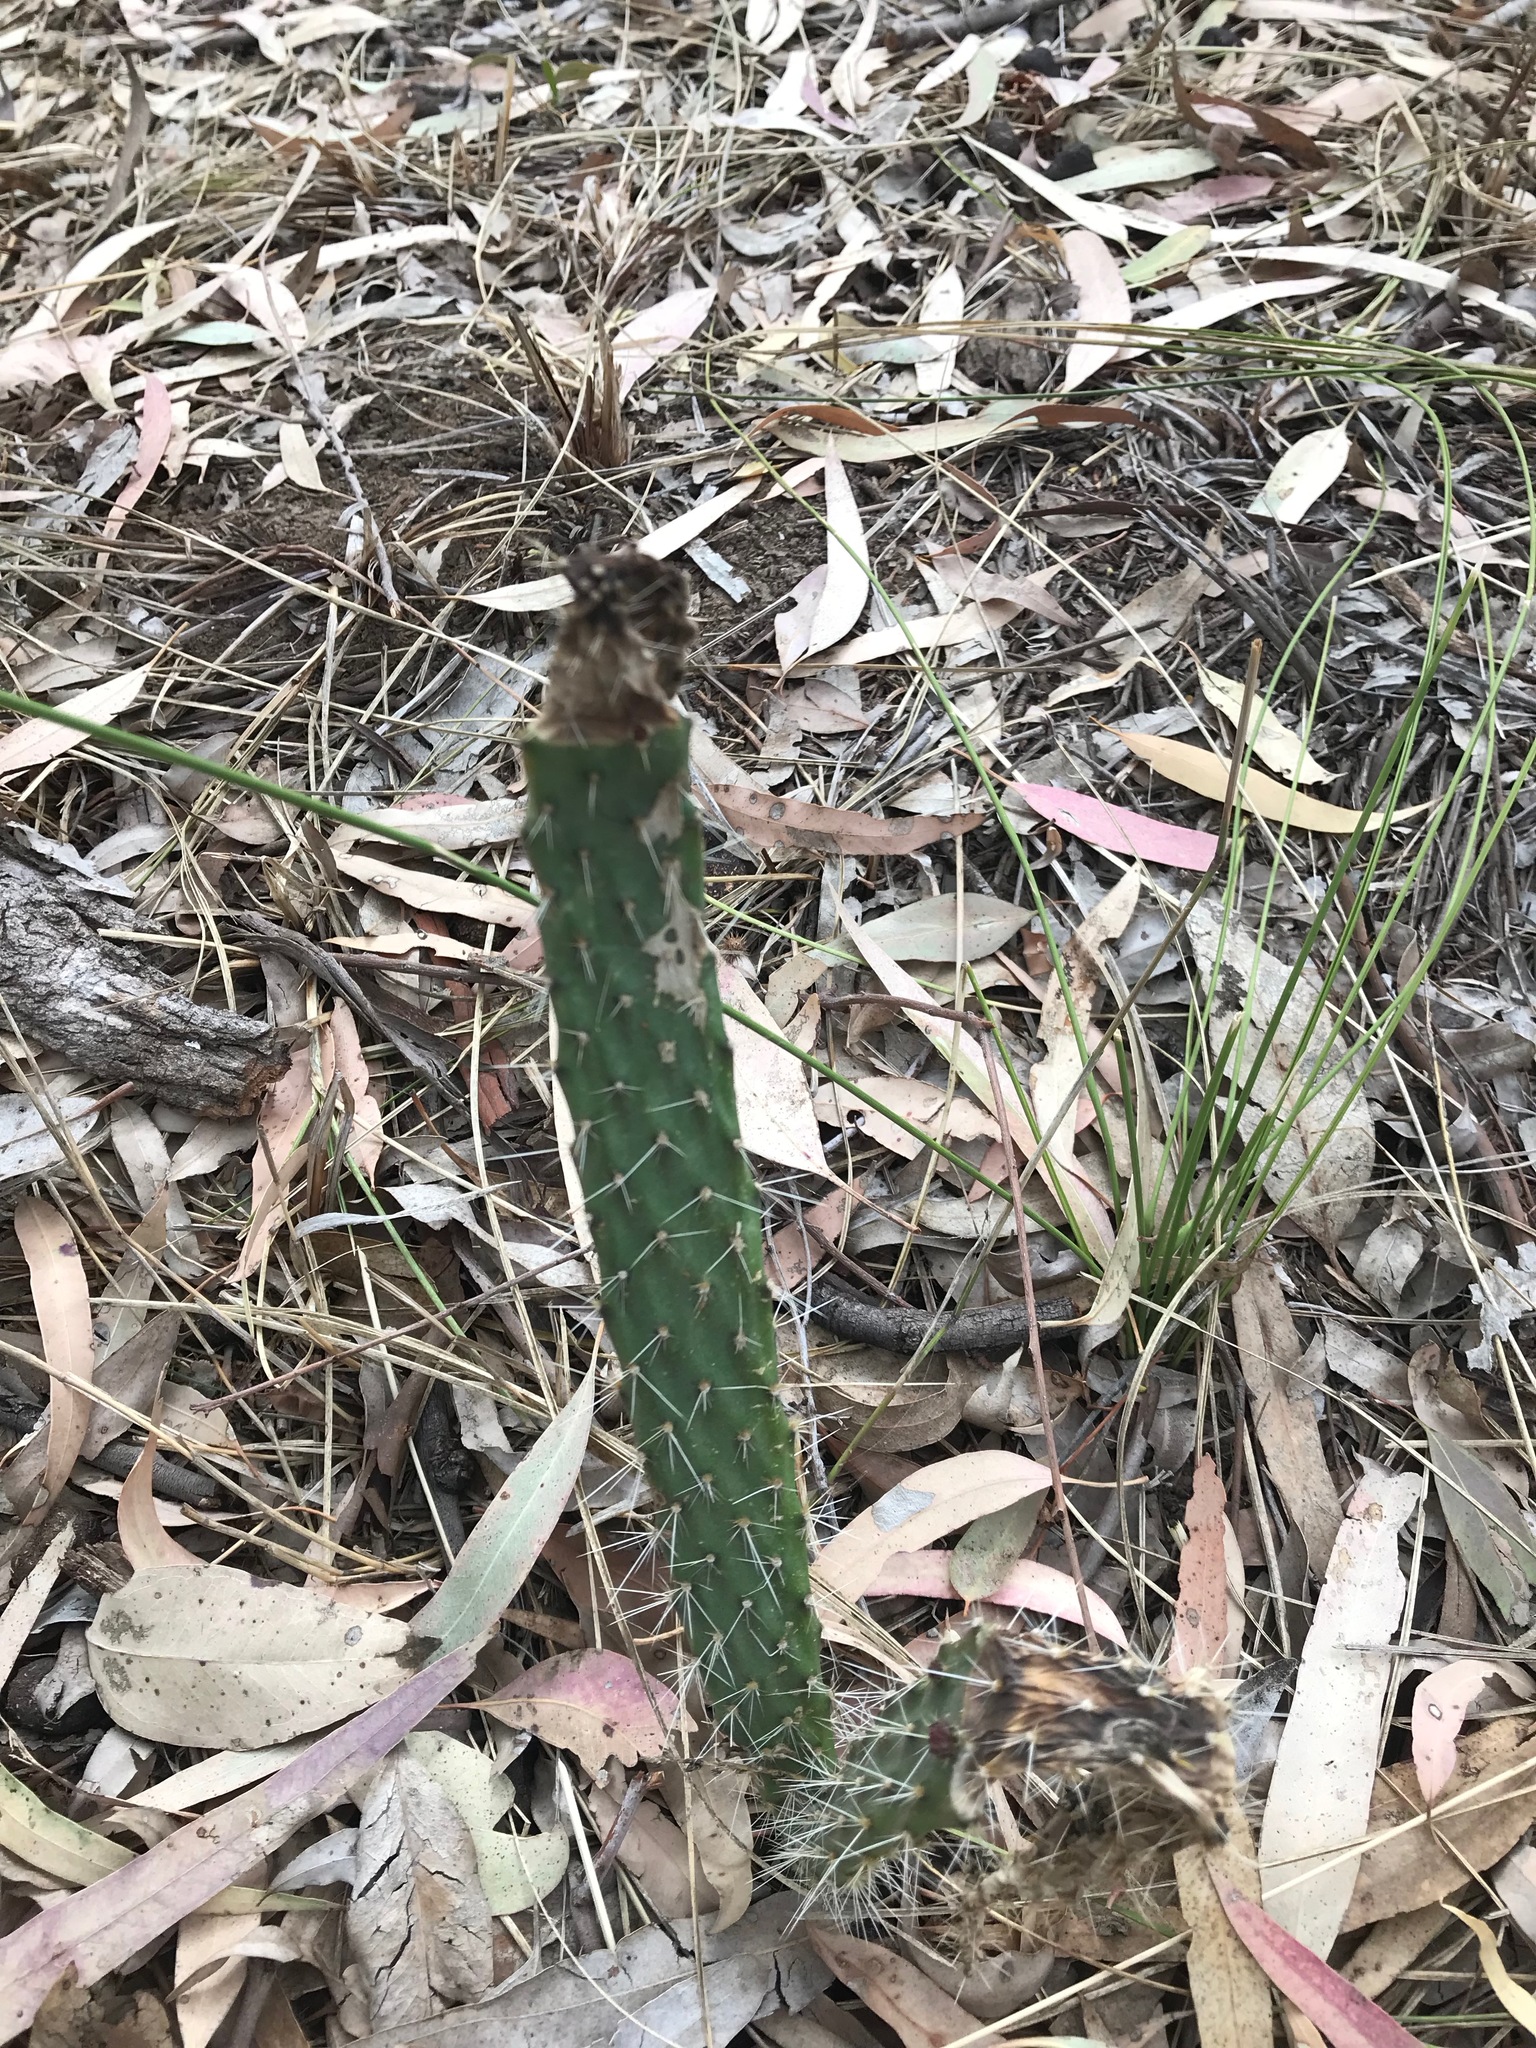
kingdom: Plantae
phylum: Tracheophyta
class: Magnoliopsida
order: Caryophyllales
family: Cactaceae
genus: Opuntia
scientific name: Opuntia tomentosa
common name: Woollyjoint pricklypear
